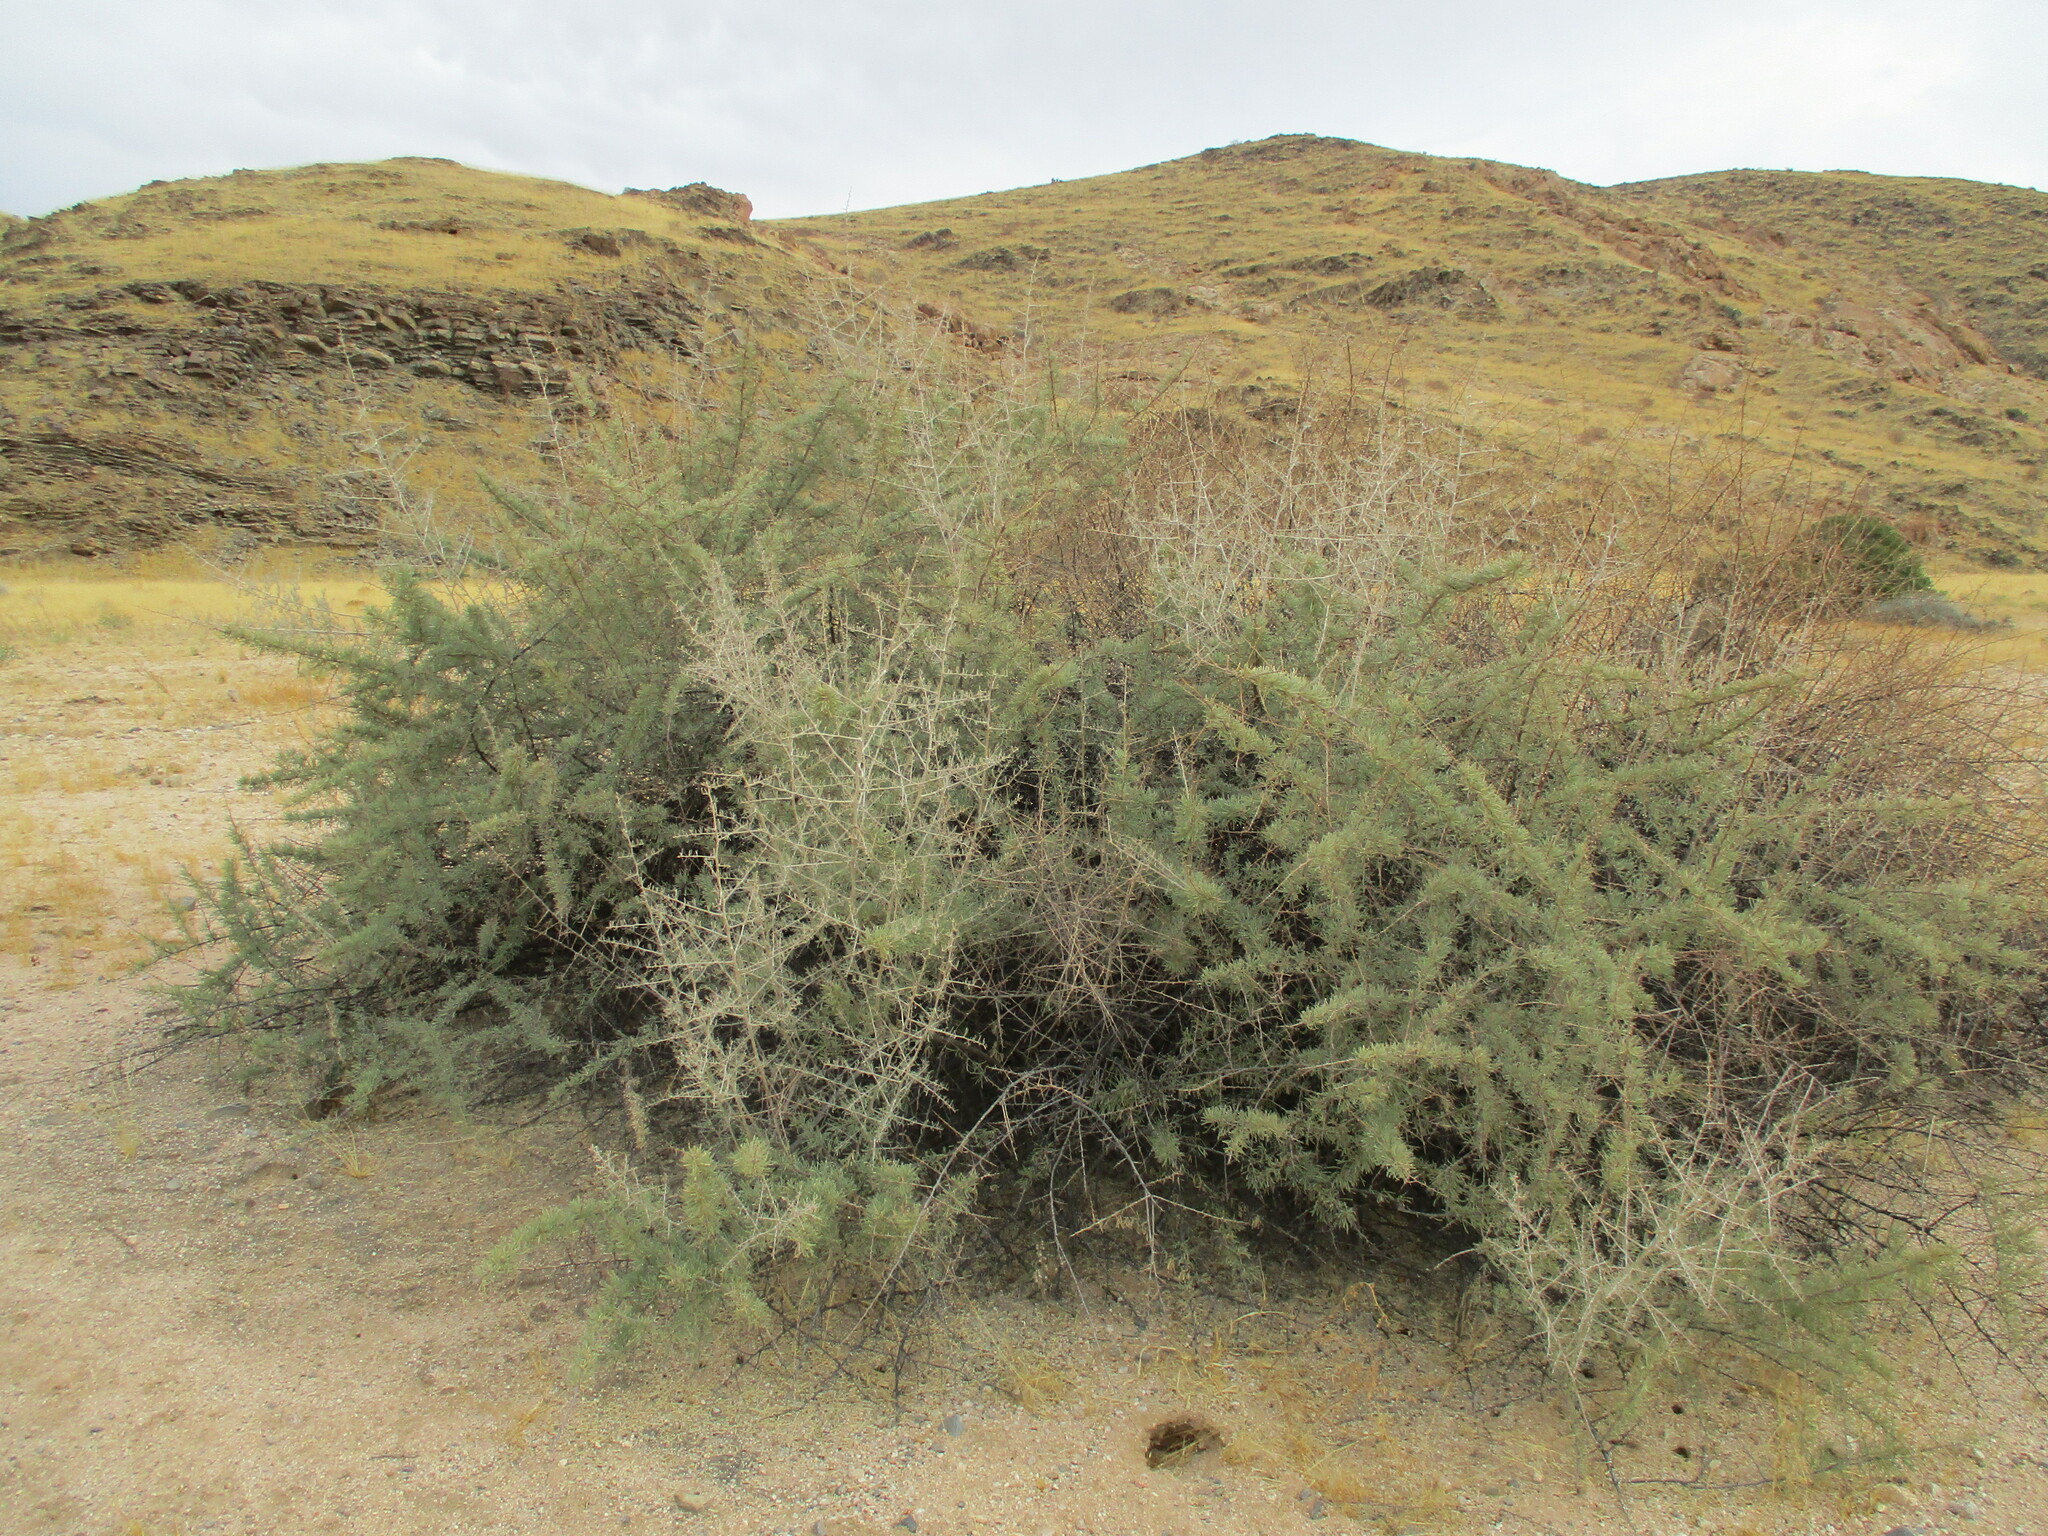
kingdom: Plantae
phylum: Tracheophyta
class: Magnoliopsida
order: Caryophyllales
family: Nyctaginaceae
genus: Phaeoptilum
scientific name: Phaeoptilum spinosum
